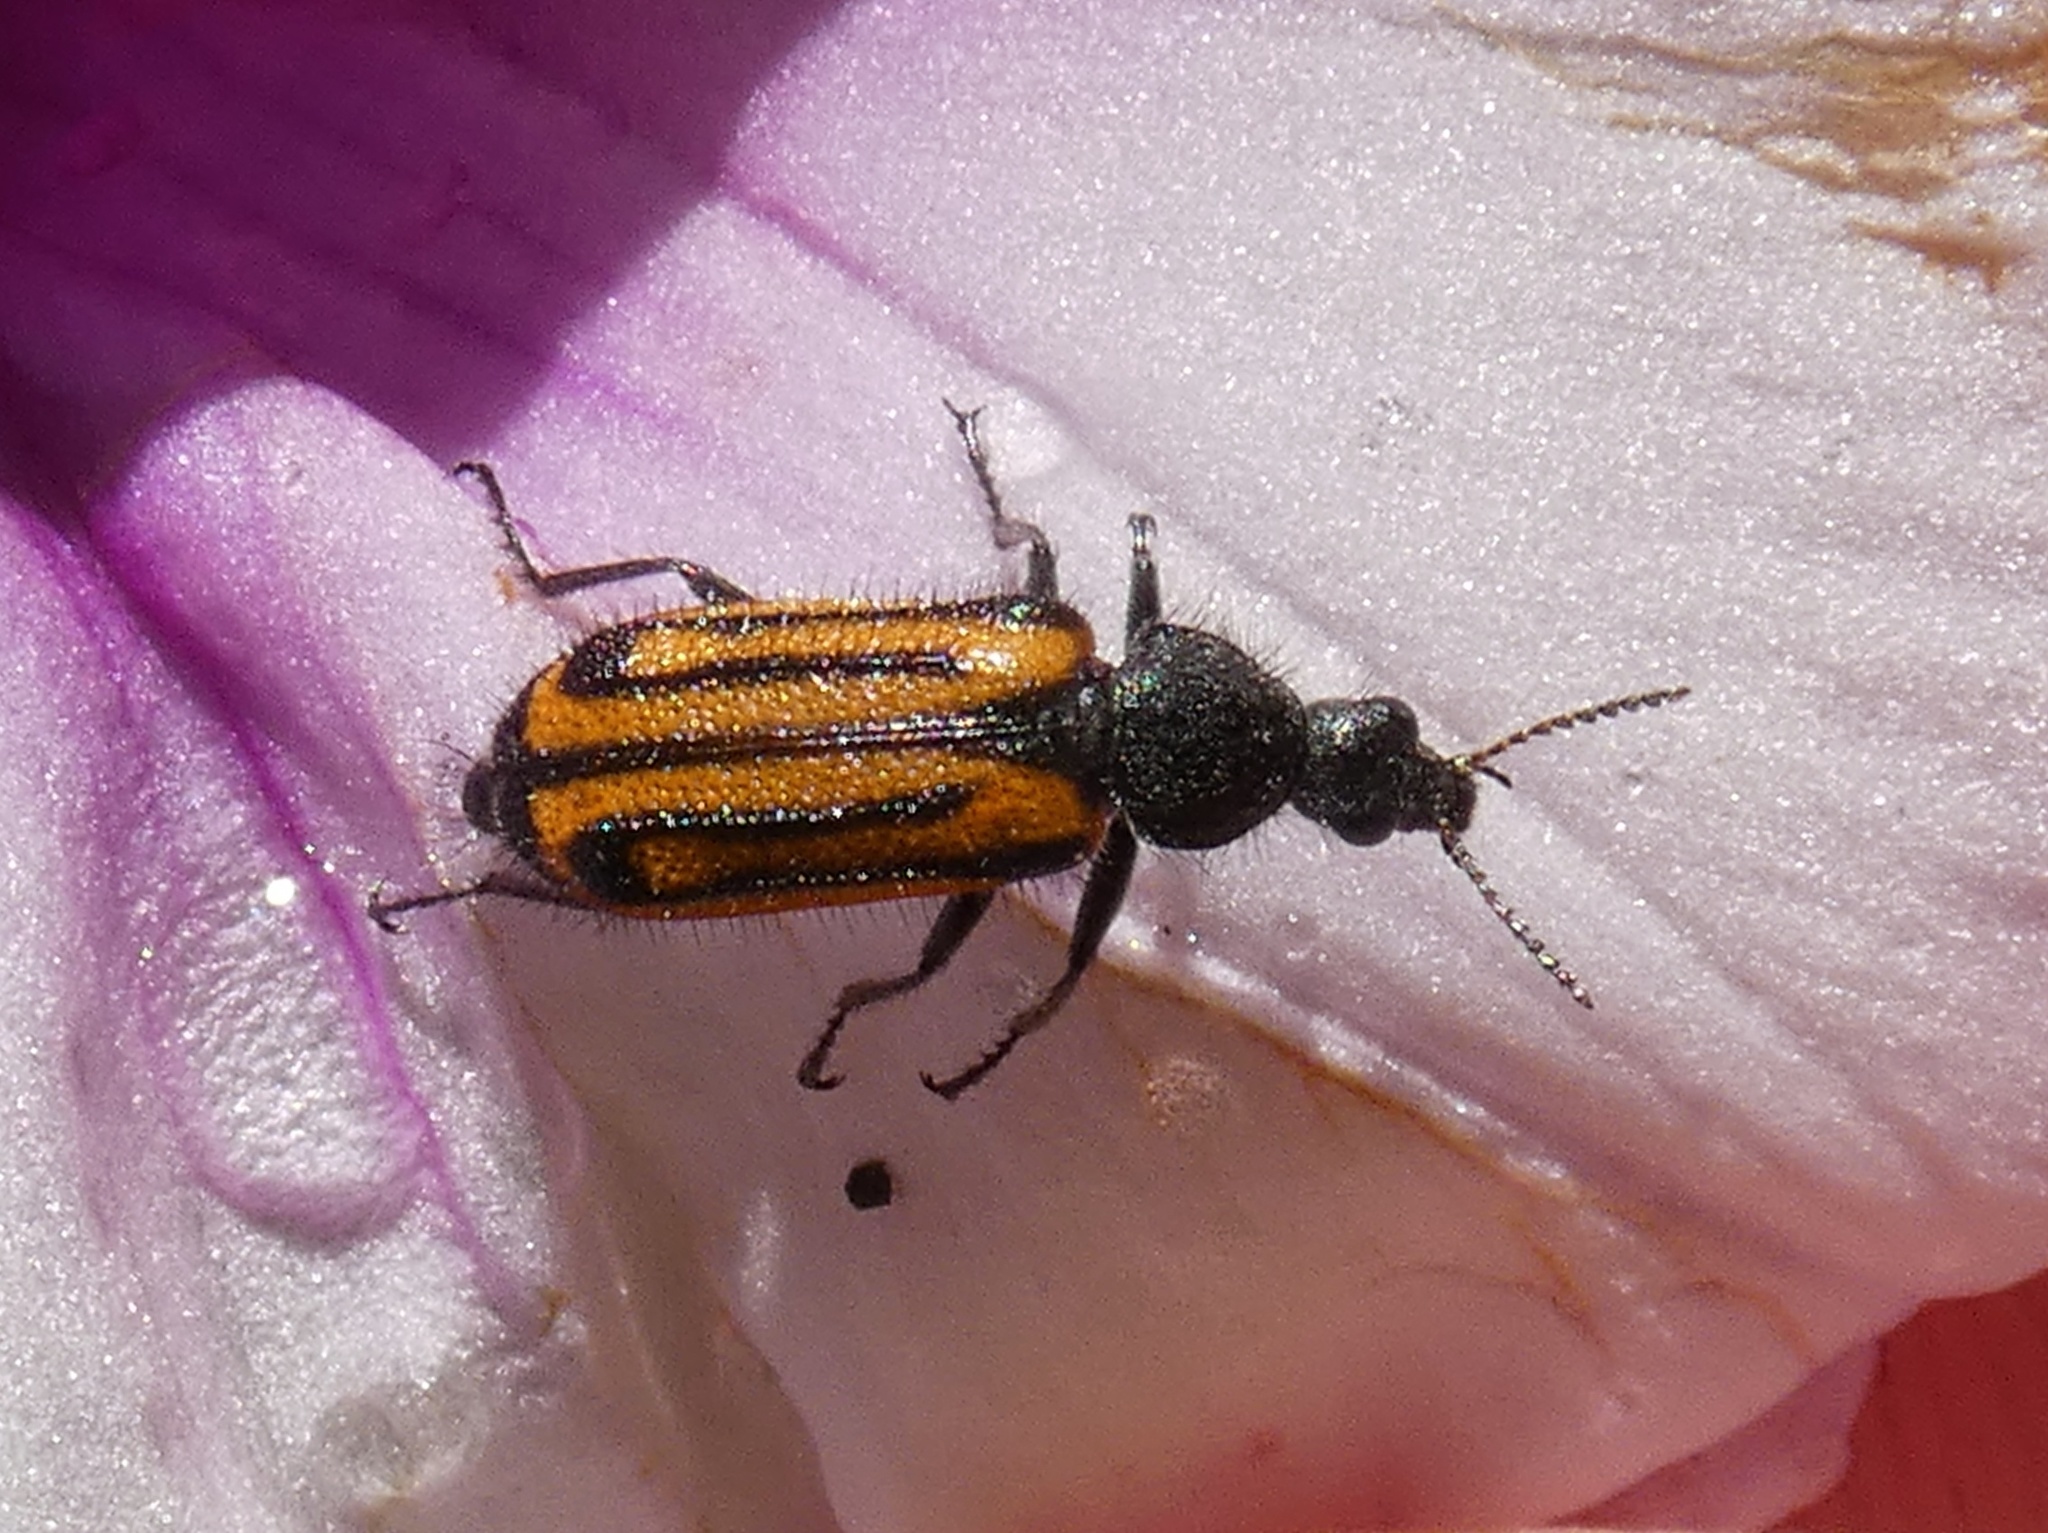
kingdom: Animalia
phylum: Arthropoda
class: Insecta
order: Coleoptera
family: Melyridae
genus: Astylus
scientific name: Astylus
